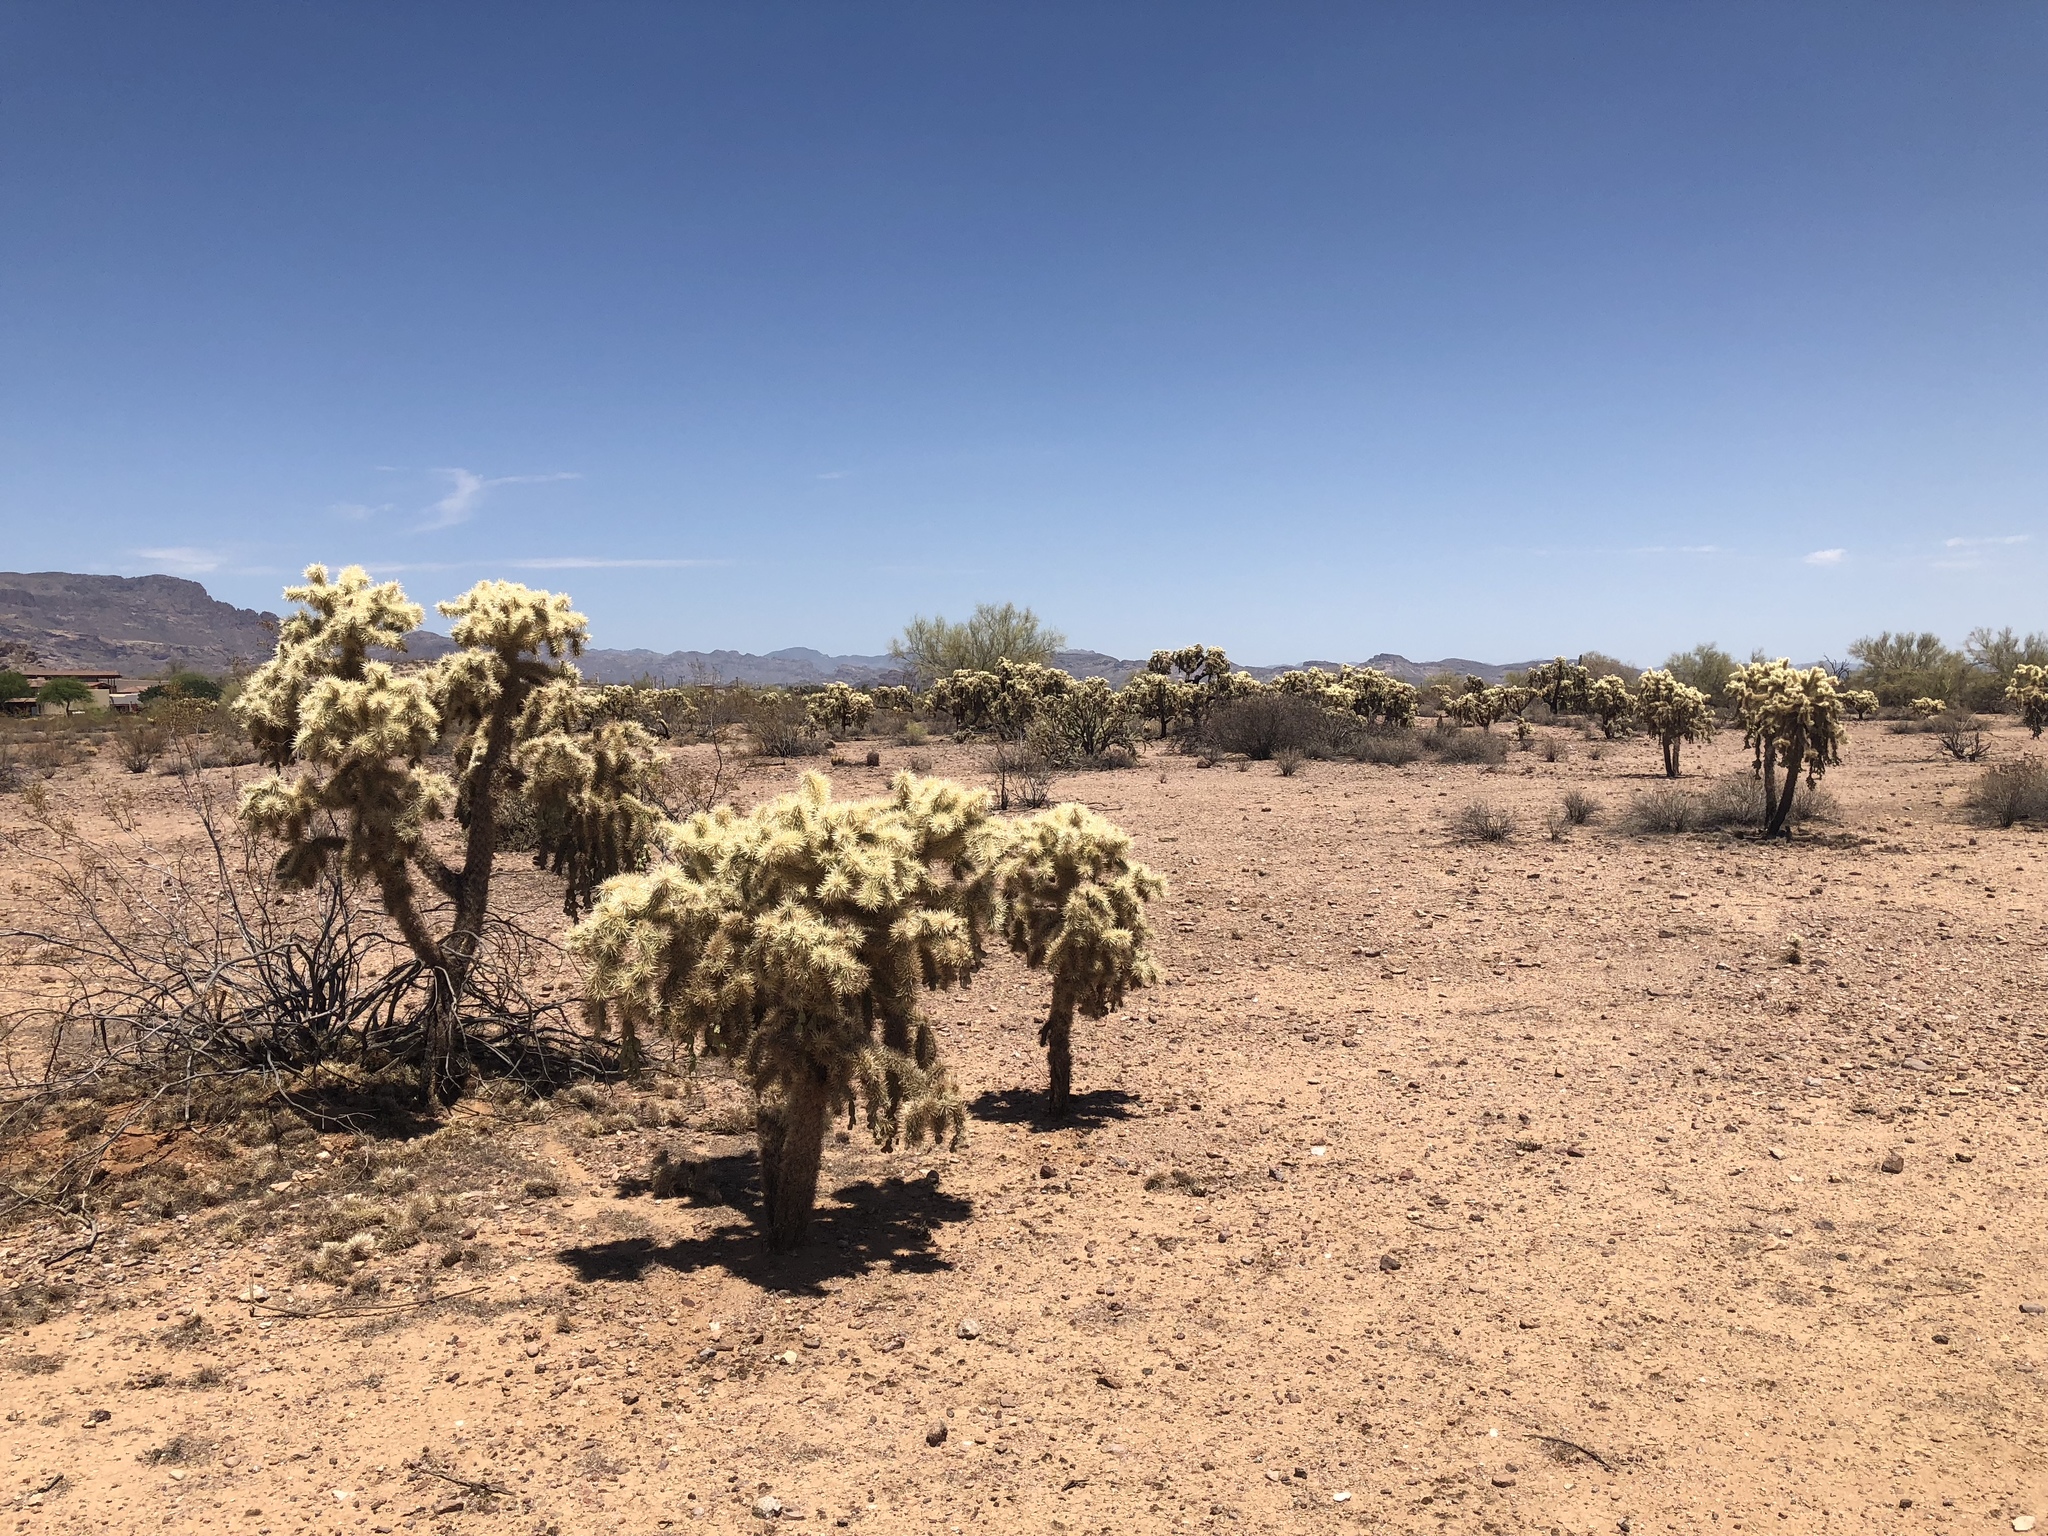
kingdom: Plantae
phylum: Tracheophyta
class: Magnoliopsida
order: Caryophyllales
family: Cactaceae
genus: Cylindropuntia
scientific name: Cylindropuntia fosbergii
